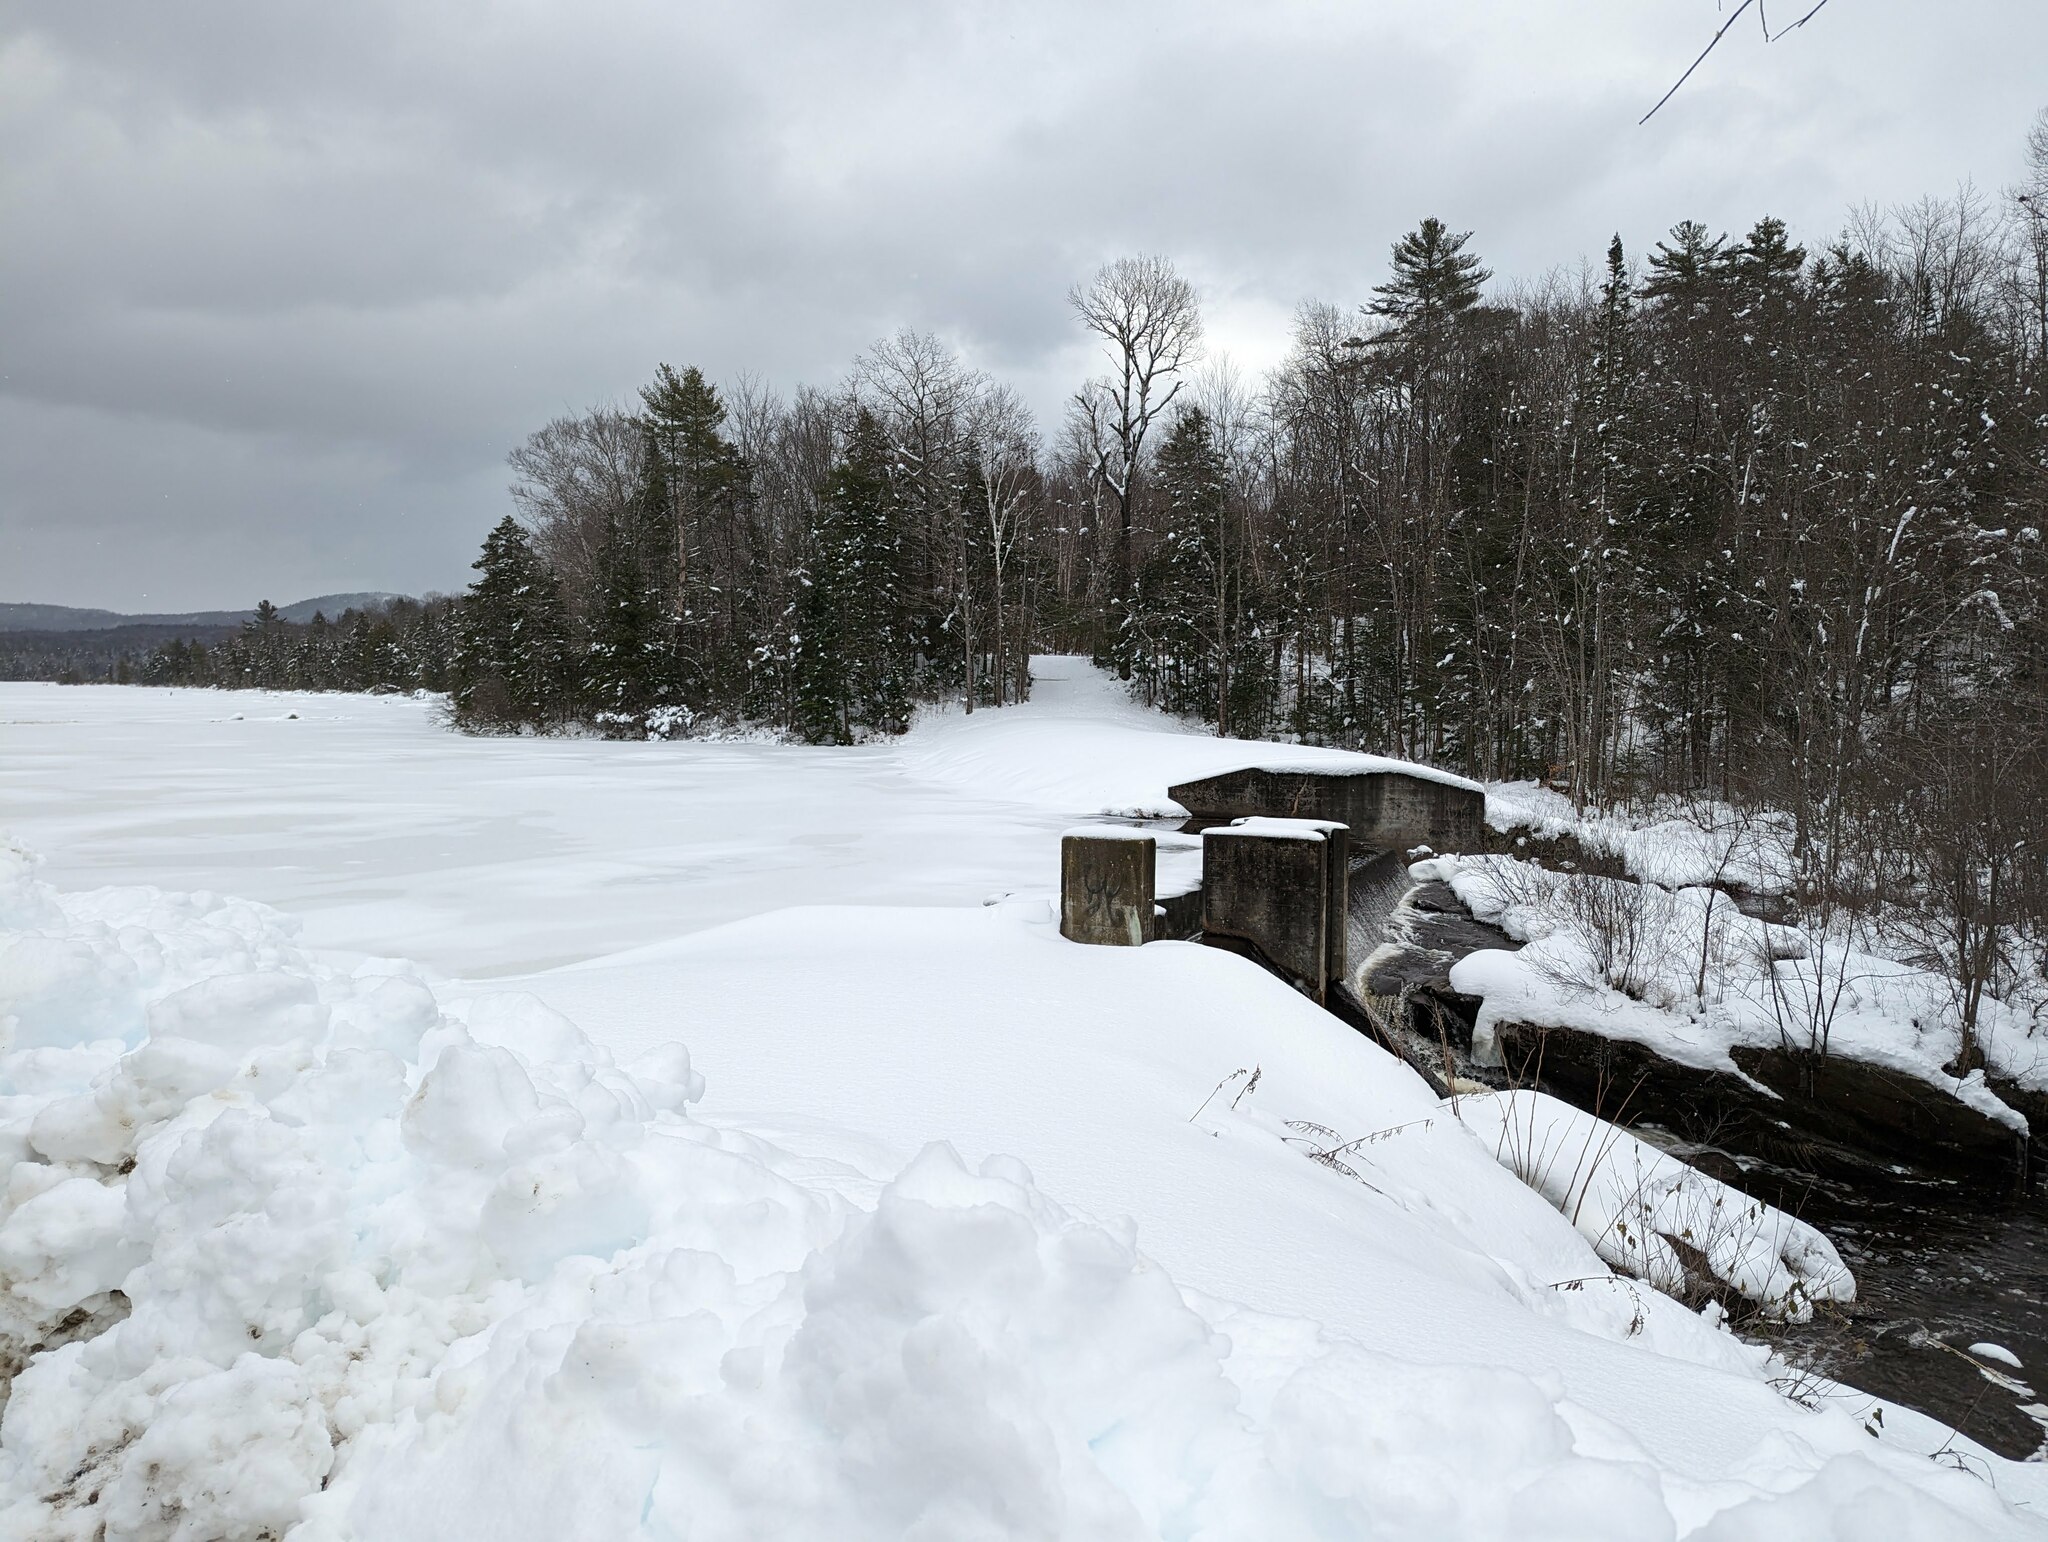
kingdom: Plantae
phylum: Tracheophyta
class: Pinopsida
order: Pinales
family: Pinaceae
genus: Pinus
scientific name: Pinus strobus
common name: Weymouth pine
